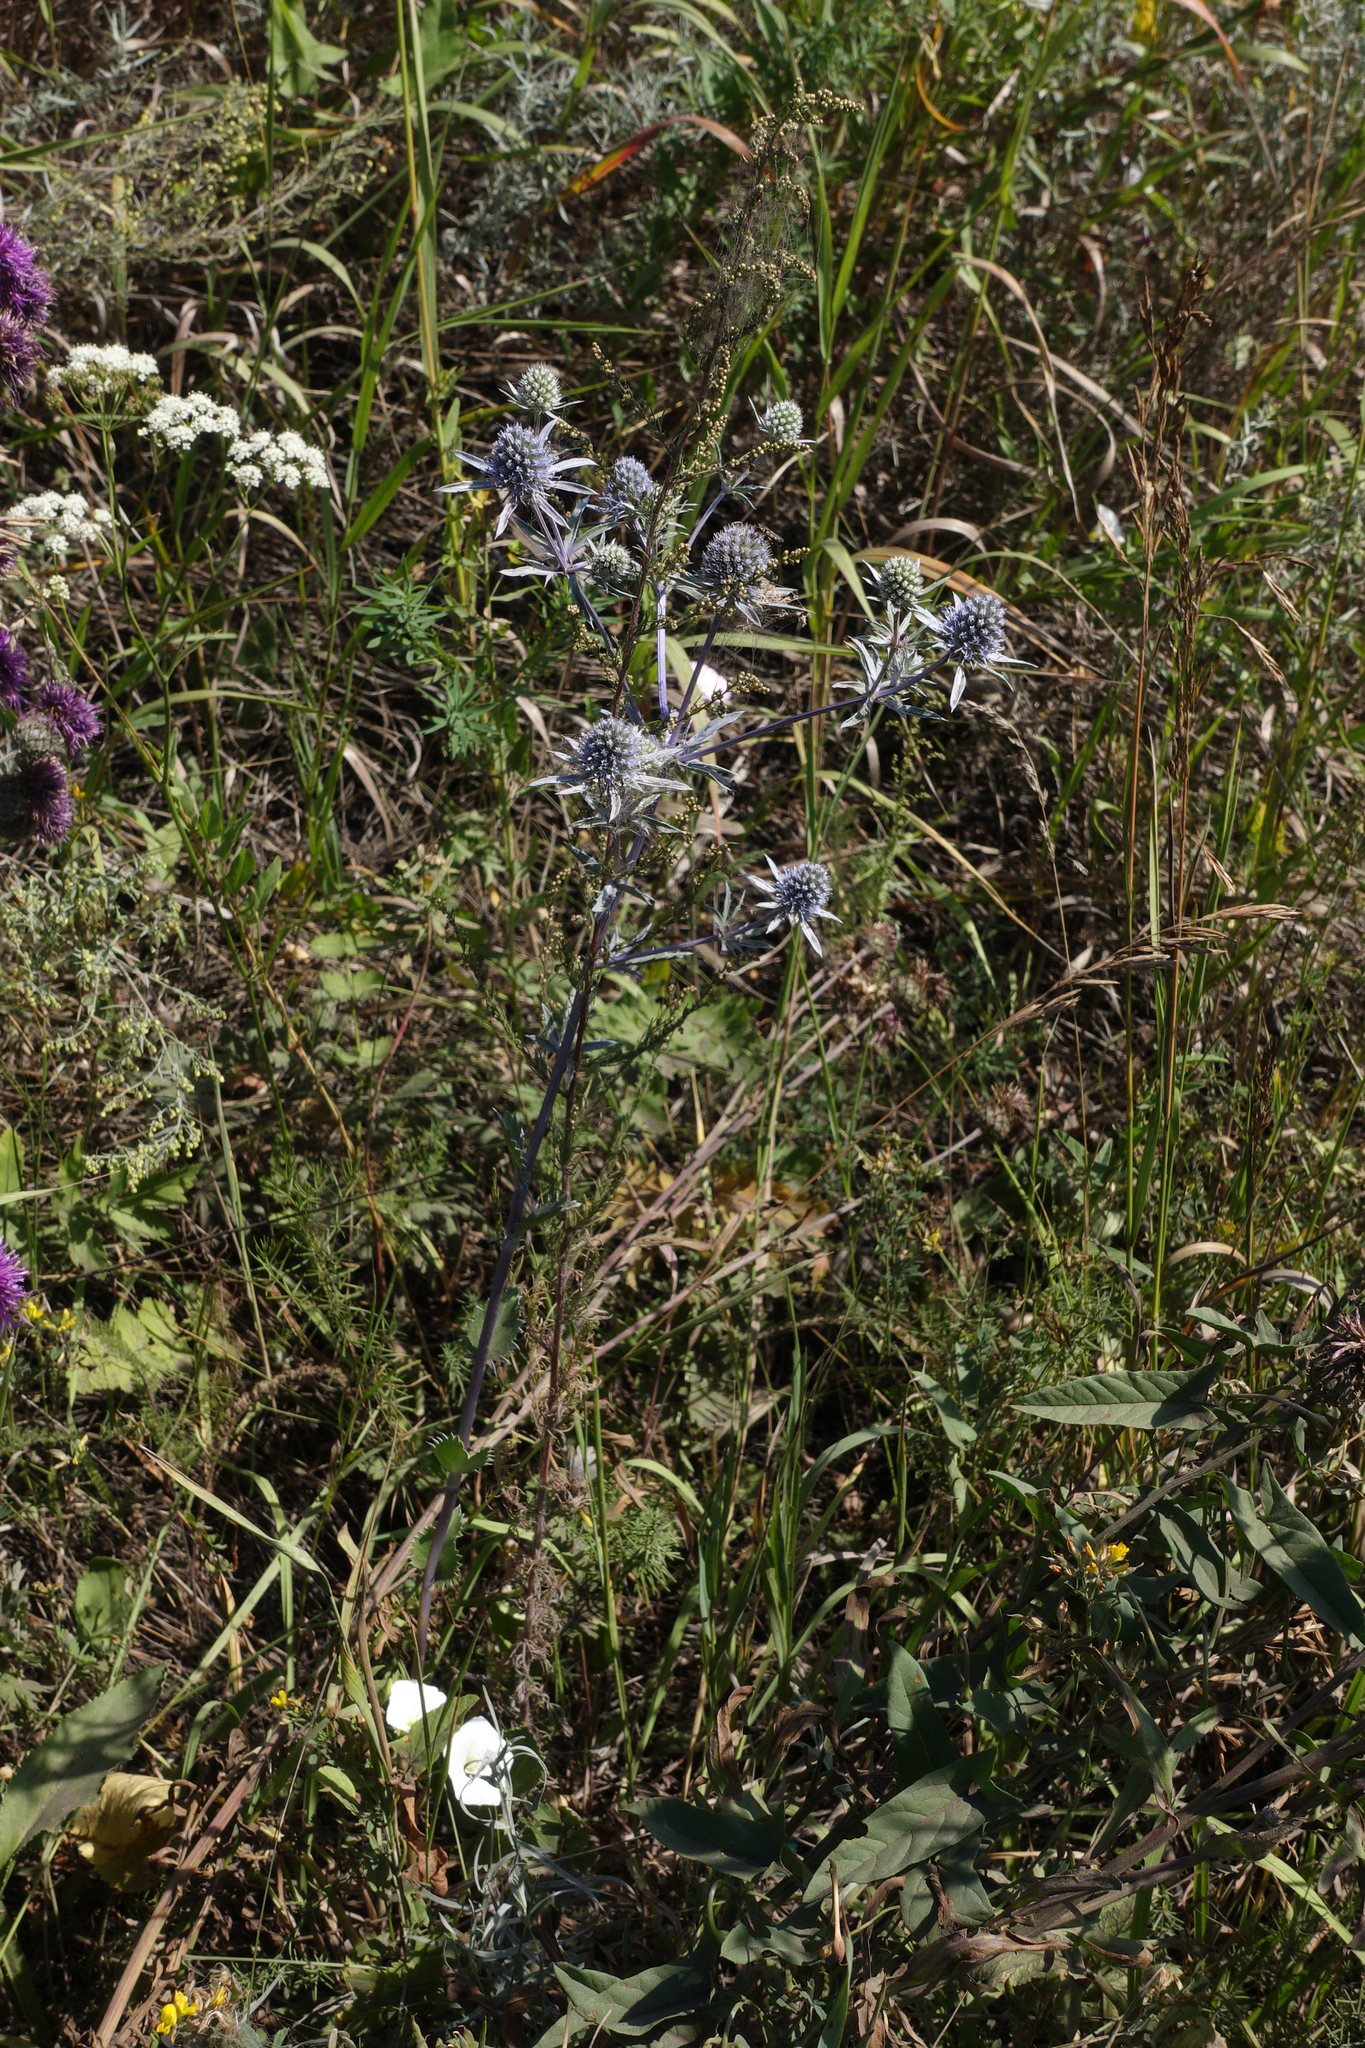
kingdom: Plantae
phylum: Tracheophyta
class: Magnoliopsida
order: Apiales
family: Apiaceae
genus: Eryngium
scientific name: Eryngium planum
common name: Blue eryngo
